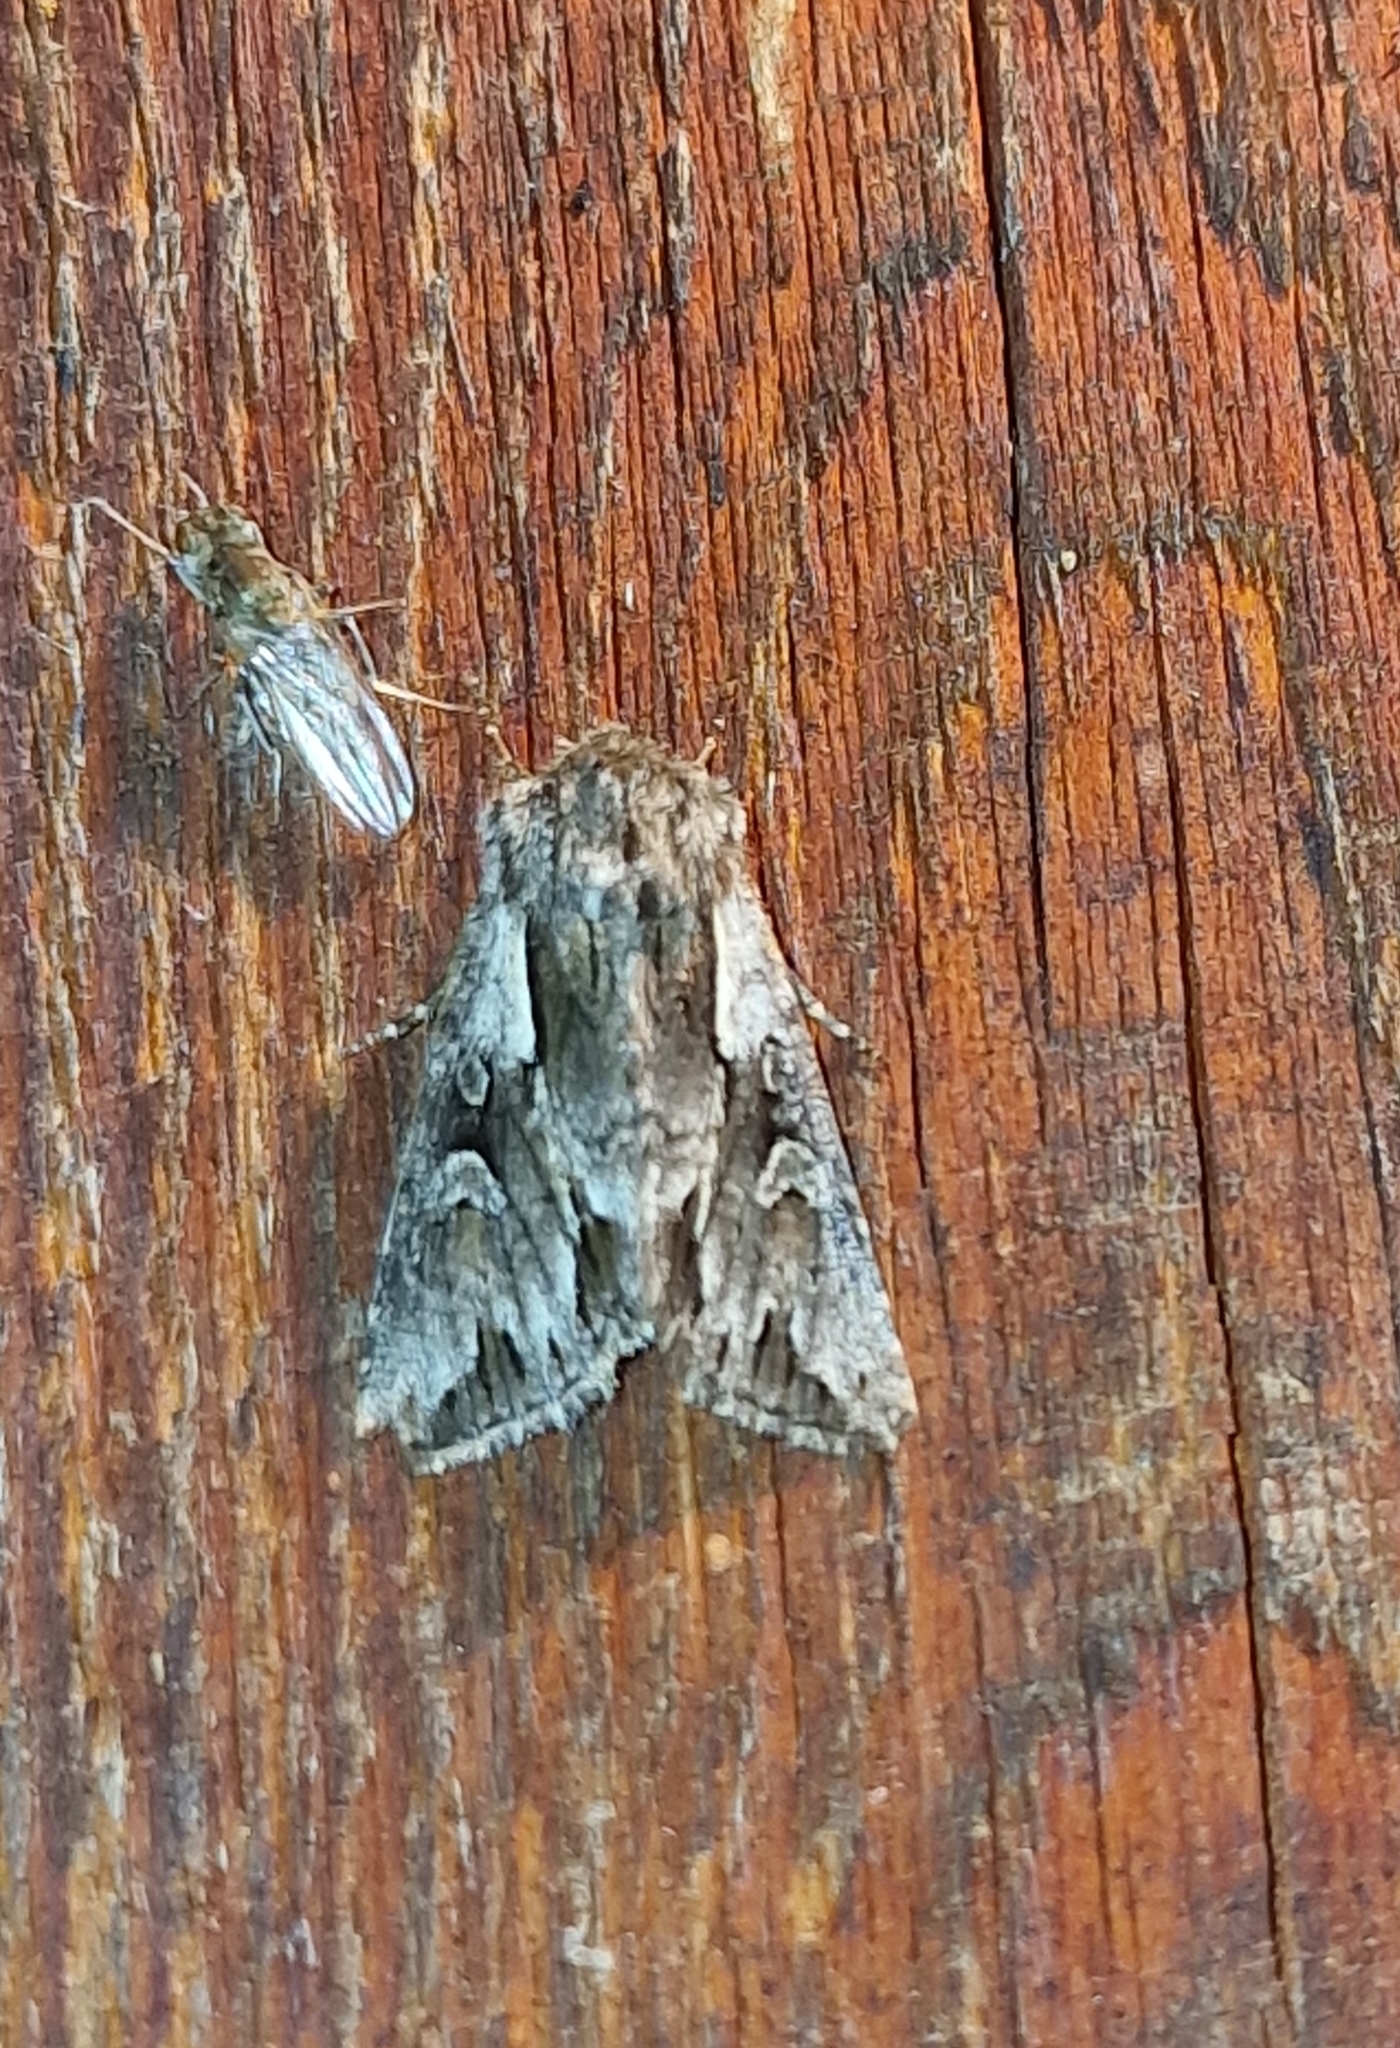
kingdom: Animalia
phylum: Arthropoda
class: Insecta
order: Lepidoptera
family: Noctuidae
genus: Chloantha
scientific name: Chloantha hyperici
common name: Pale-shouldered cloud
